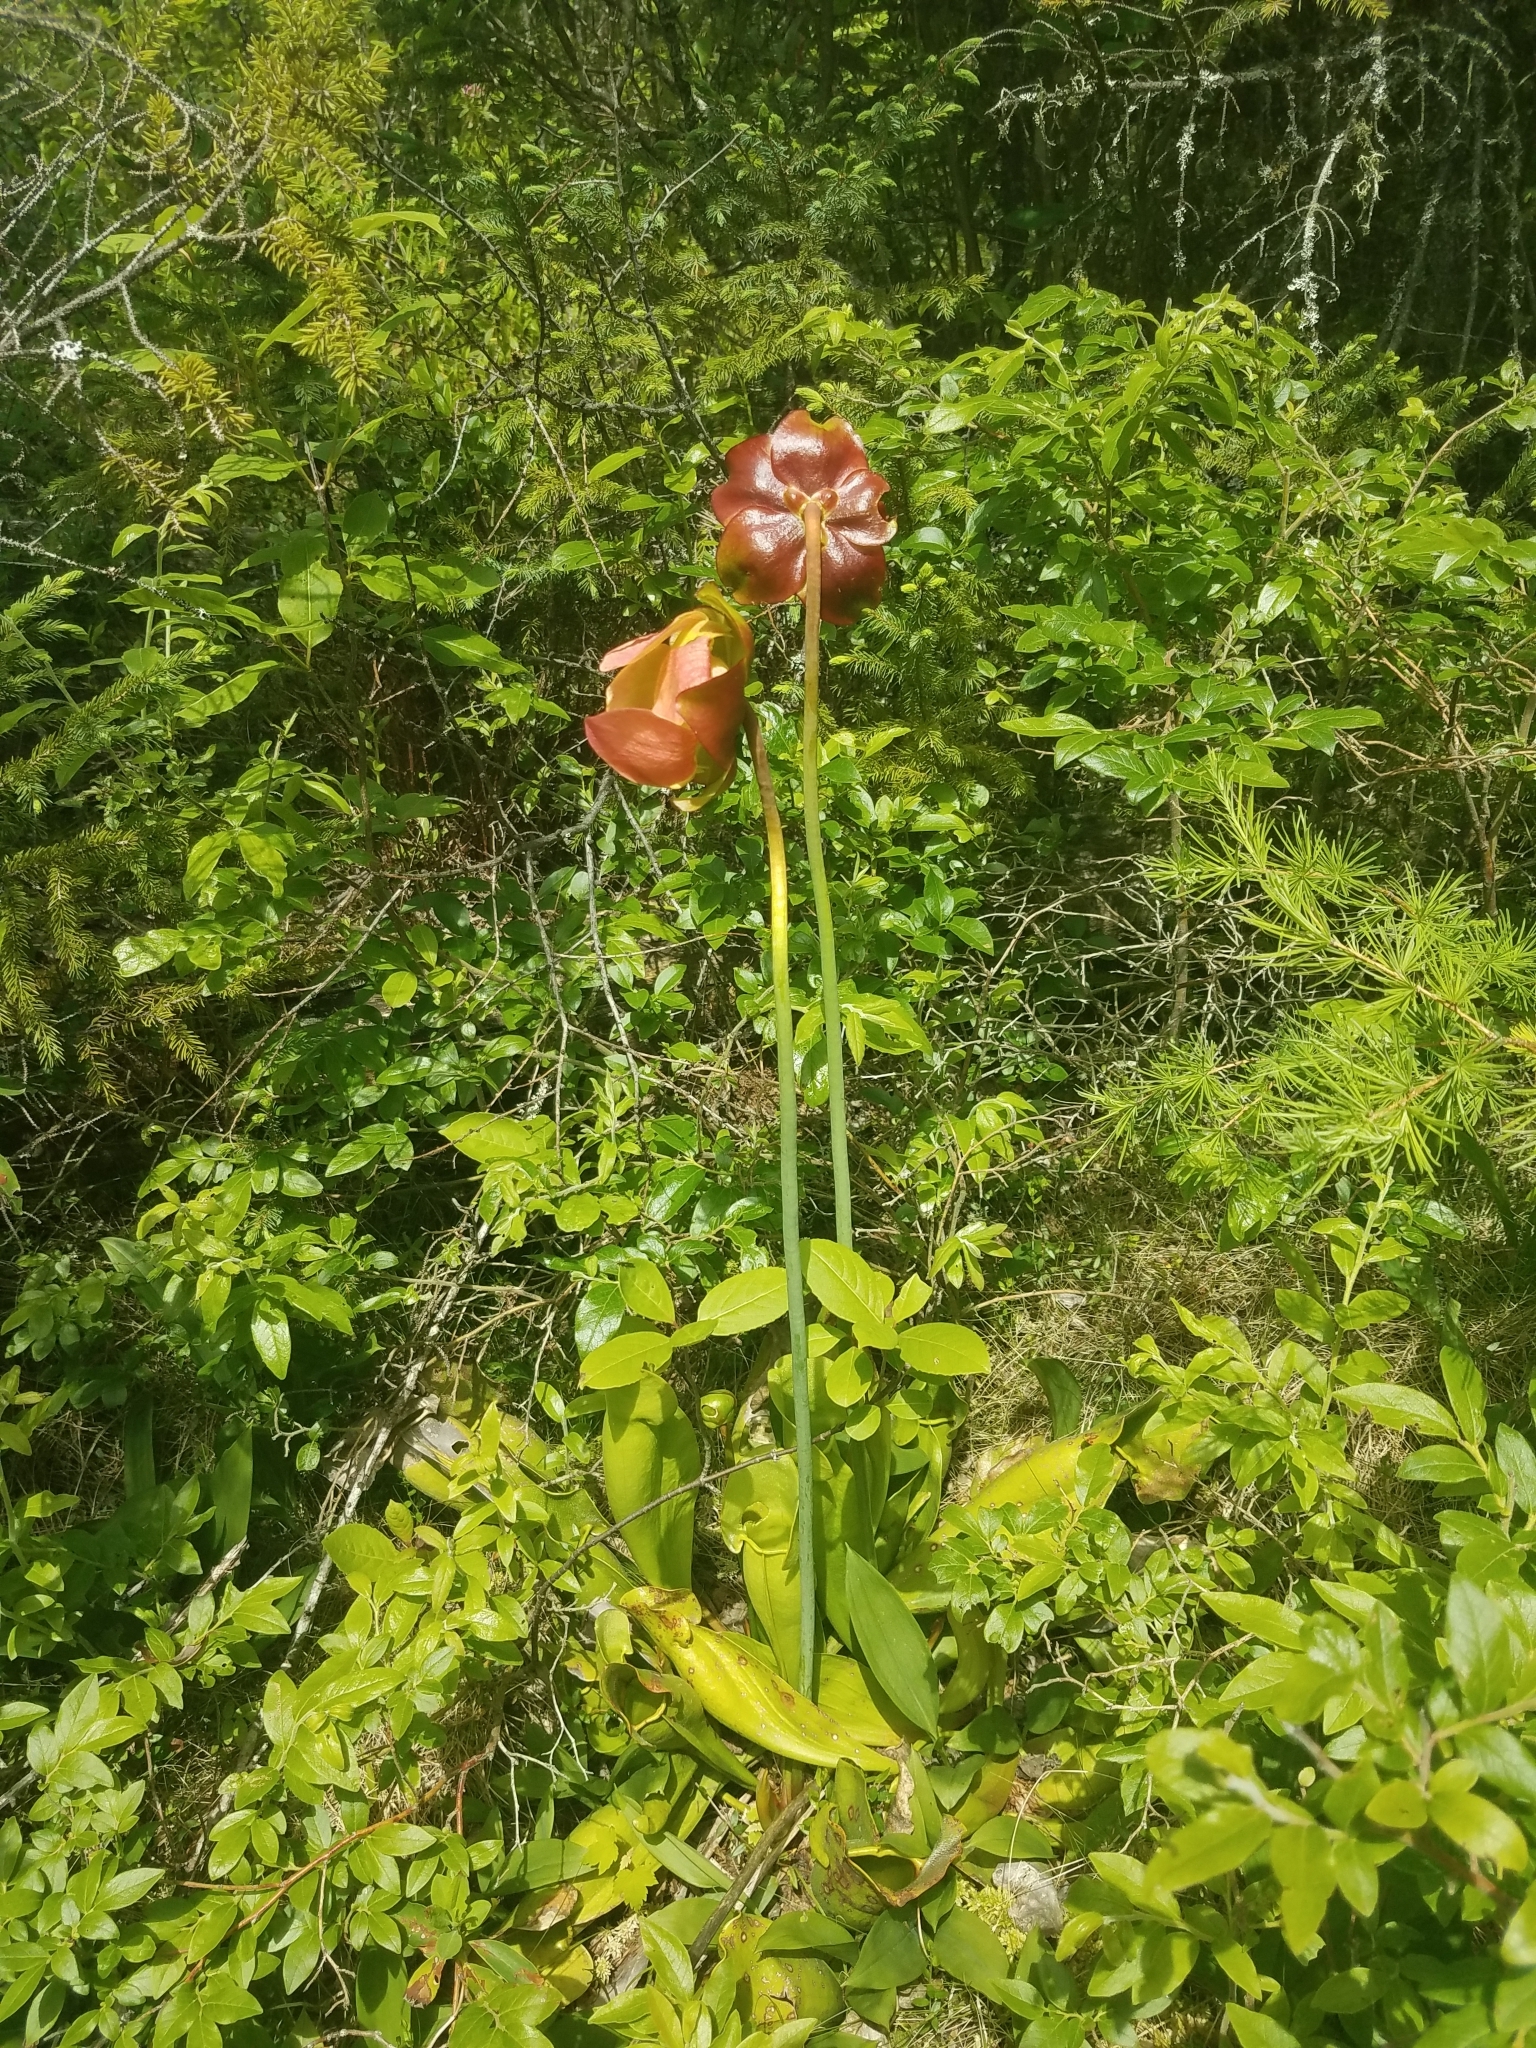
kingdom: Plantae
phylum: Tracheophyta
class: Magnoliopsida
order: Ericales
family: Sarraceniaceae
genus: Sarracenia
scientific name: Sarracenia purpurea
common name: Pitcherplant
